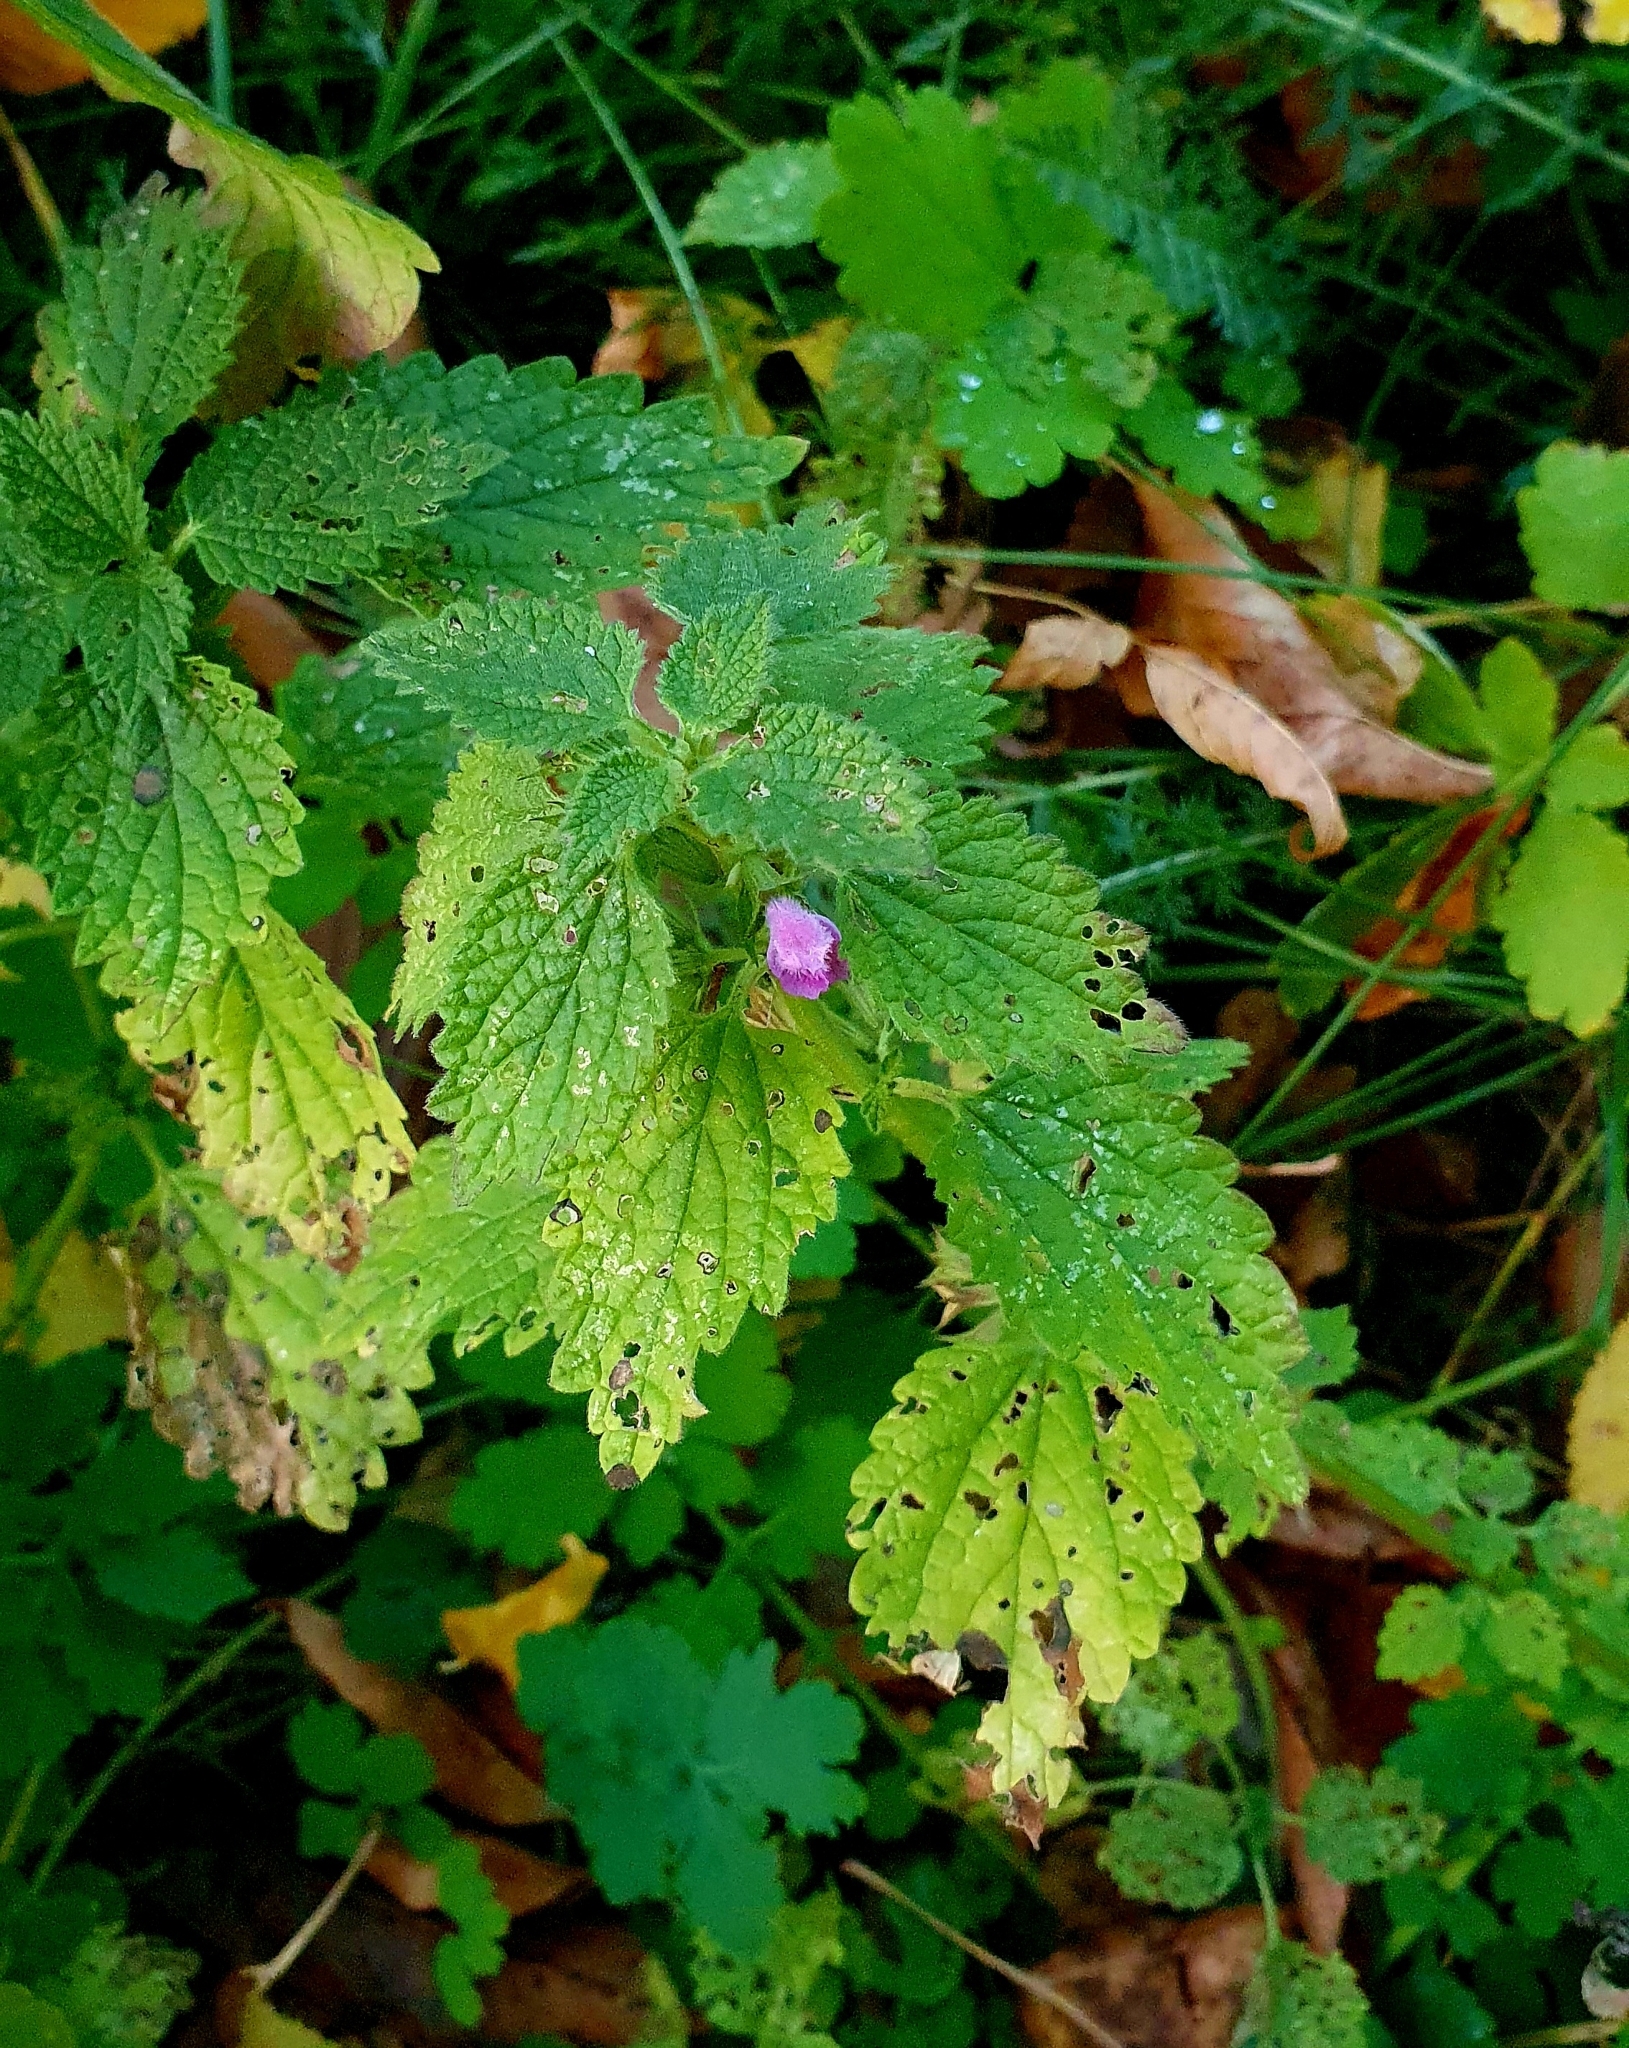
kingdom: Plantae
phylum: Tracheophyta
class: Magnoliopsida
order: Lamiales
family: Lamiaceae
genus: Ballota
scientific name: Ballota nigra
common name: Black horehound
